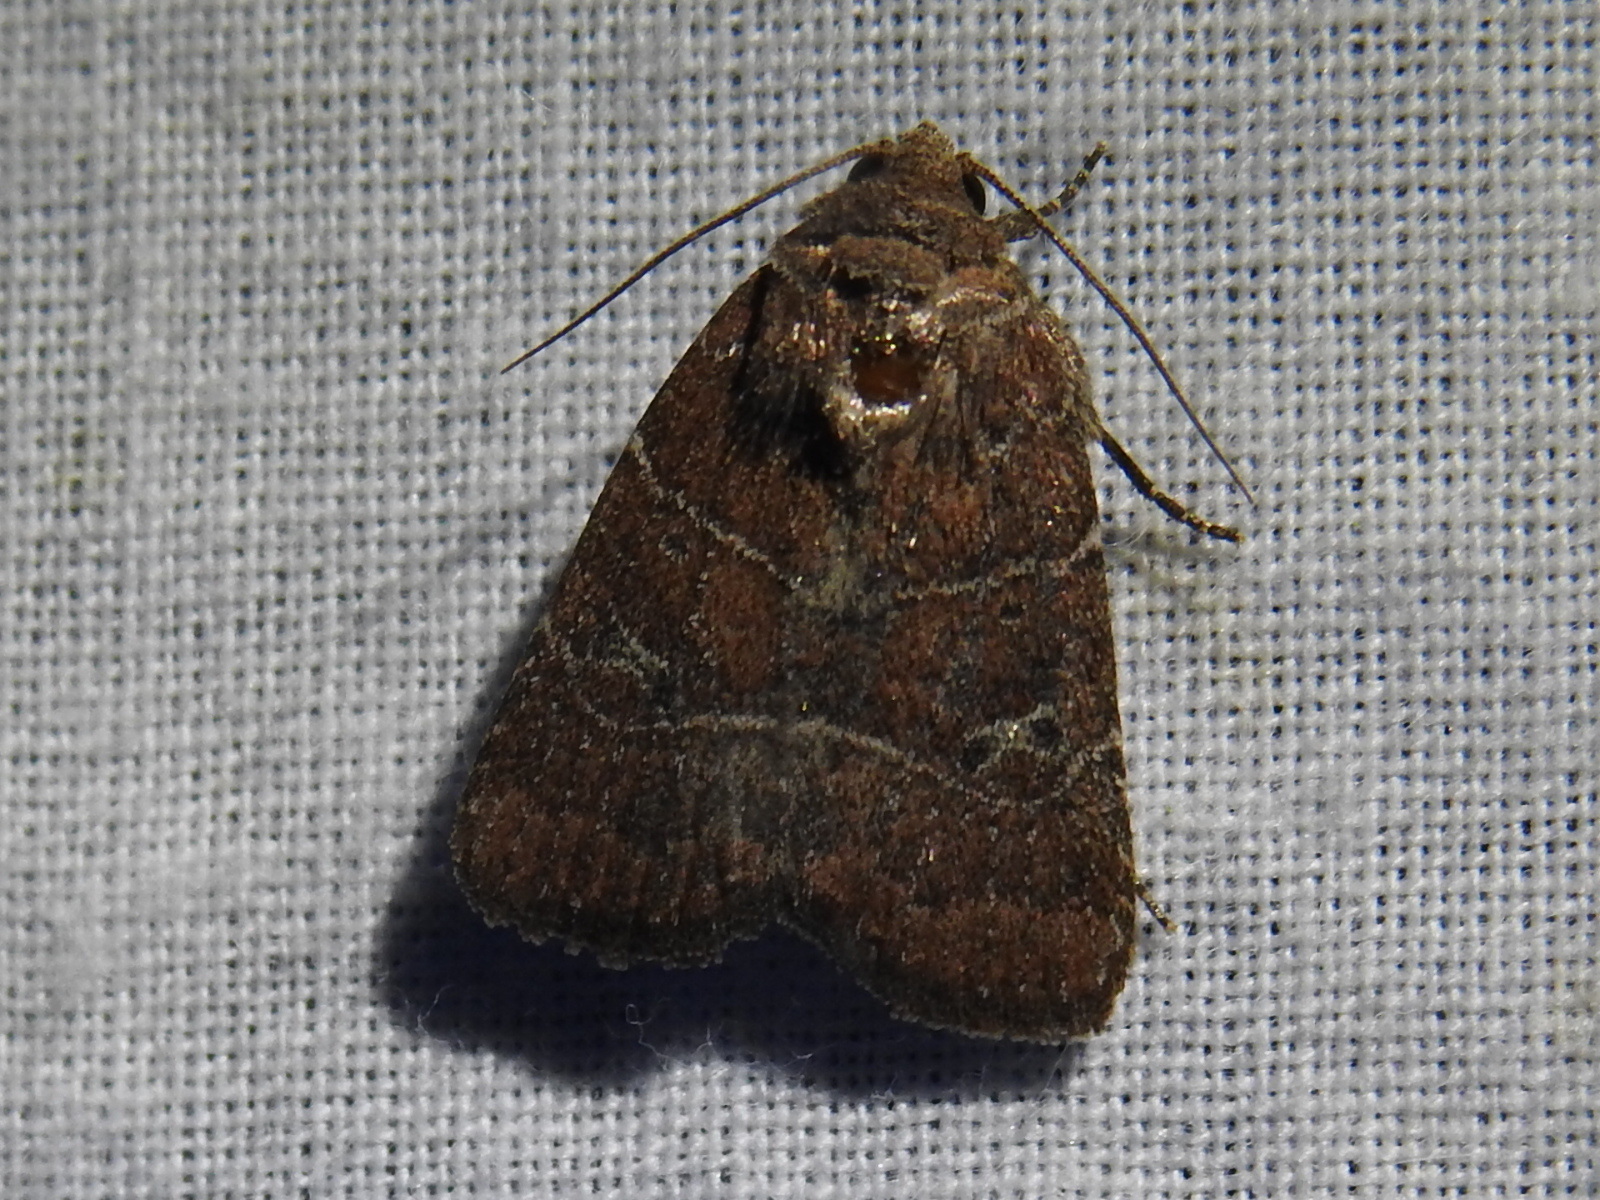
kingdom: Animalia
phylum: Arthropoda
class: Insecta
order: Lepidoptera
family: Noctuidae
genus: Elaphria
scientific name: Elaphria grata
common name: Grateful midget moth
